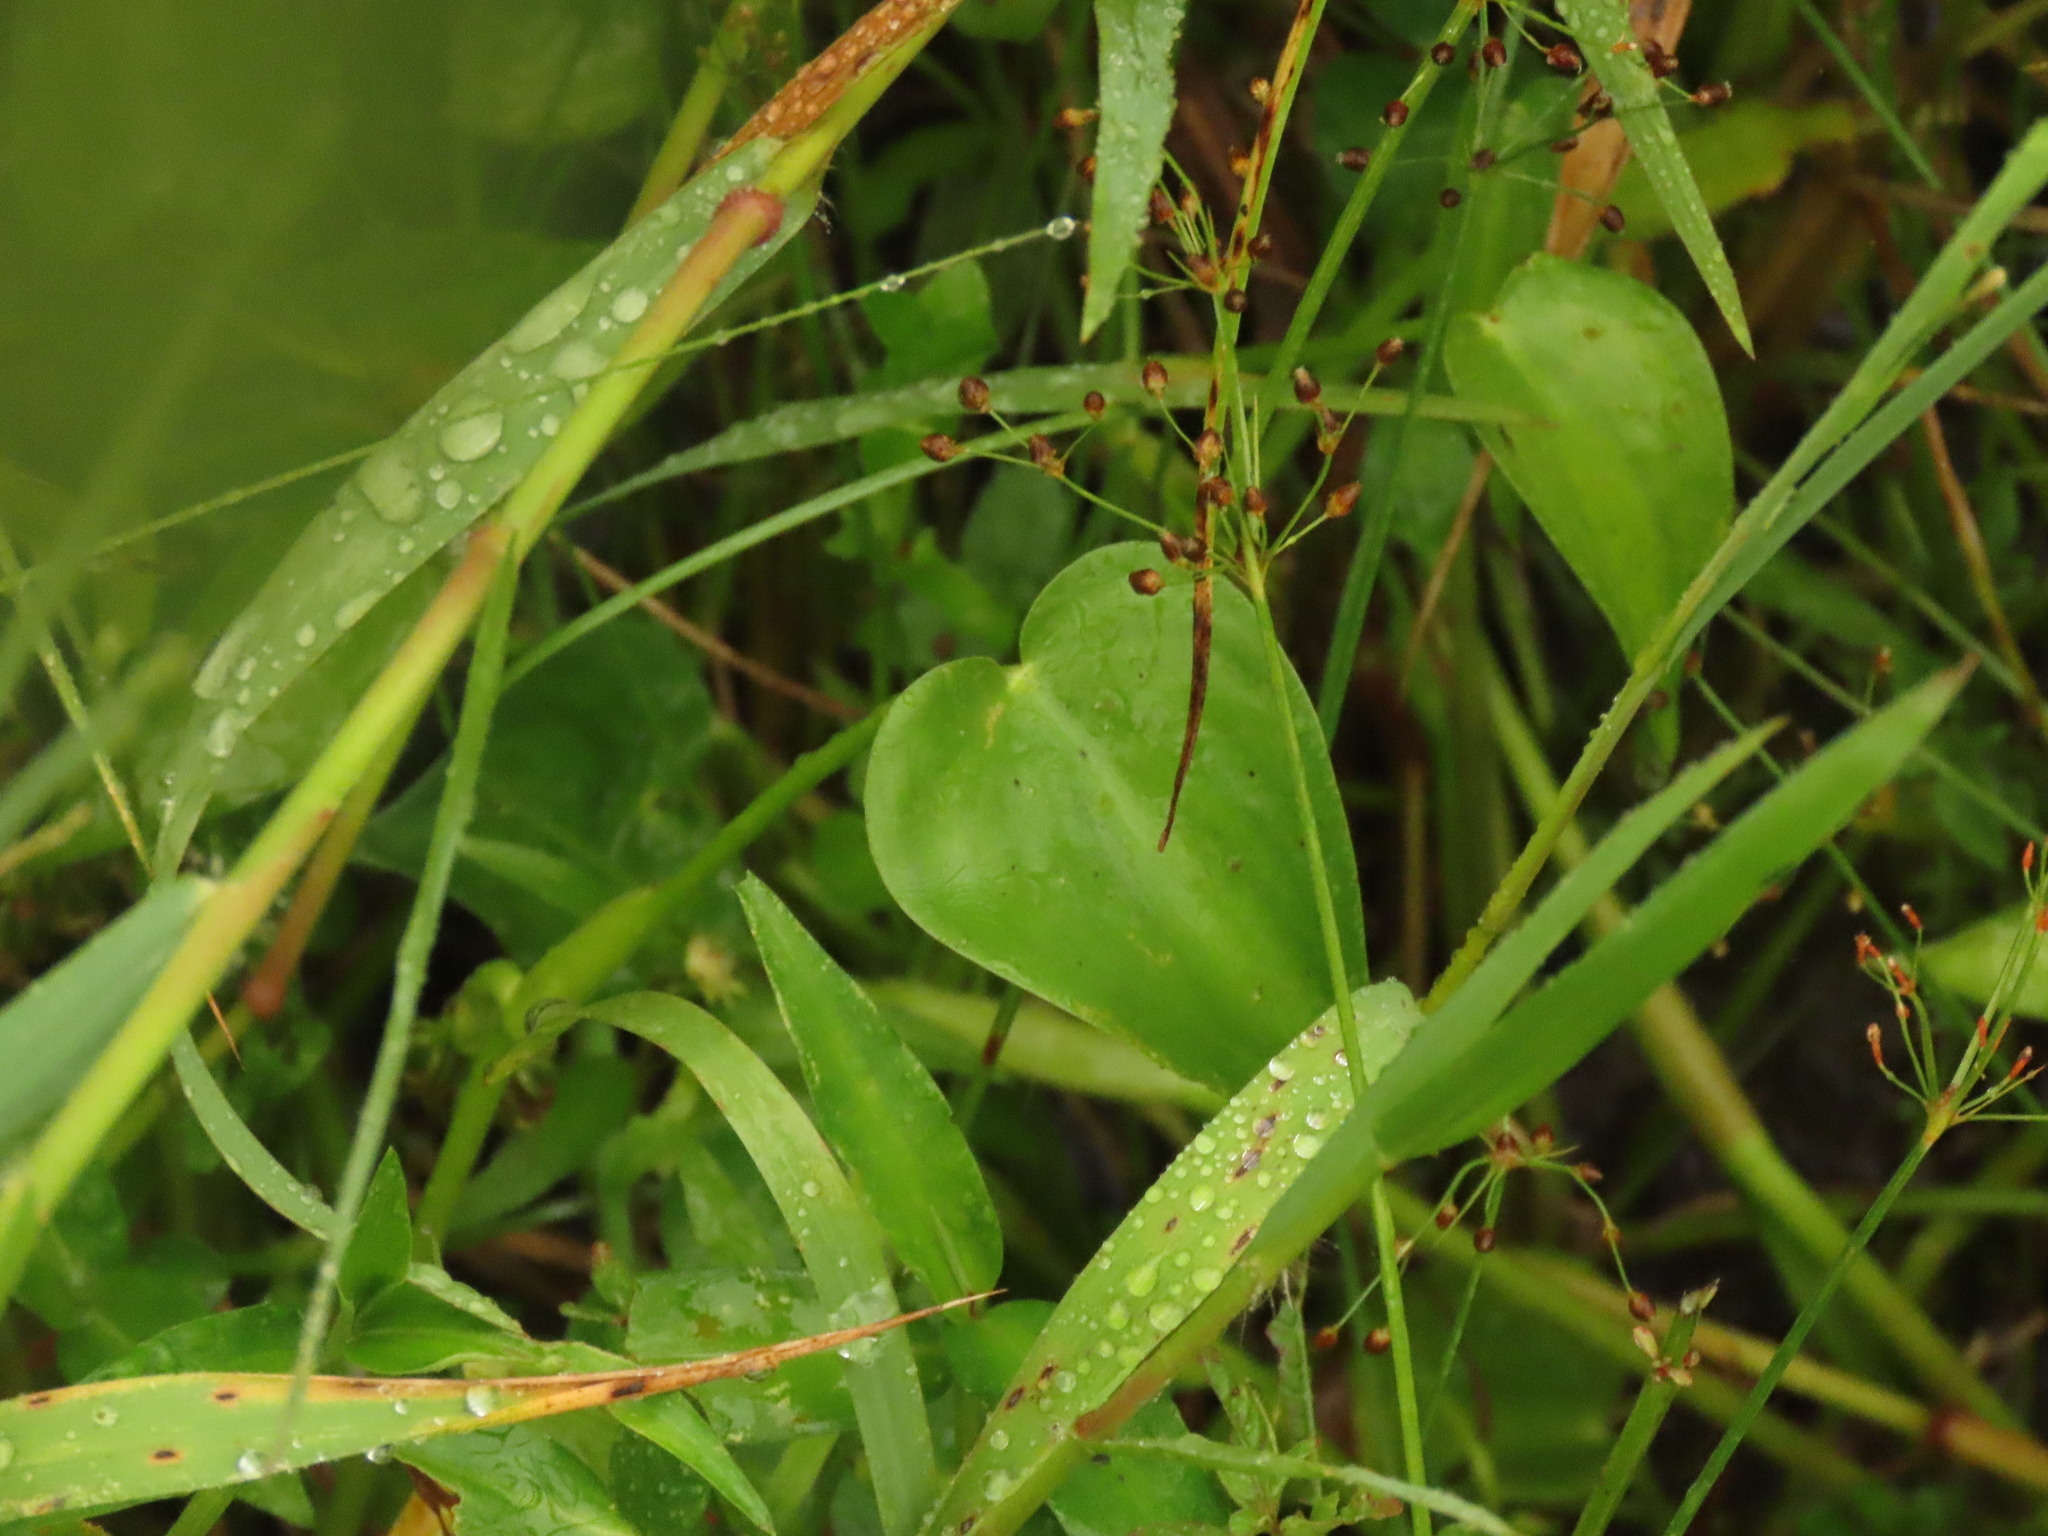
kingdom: Plantae
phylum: Tracheophyta
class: Liliopsida
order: Commelinales
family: Pontederiaceae
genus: Pontederia
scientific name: Pontederia vaginalis
